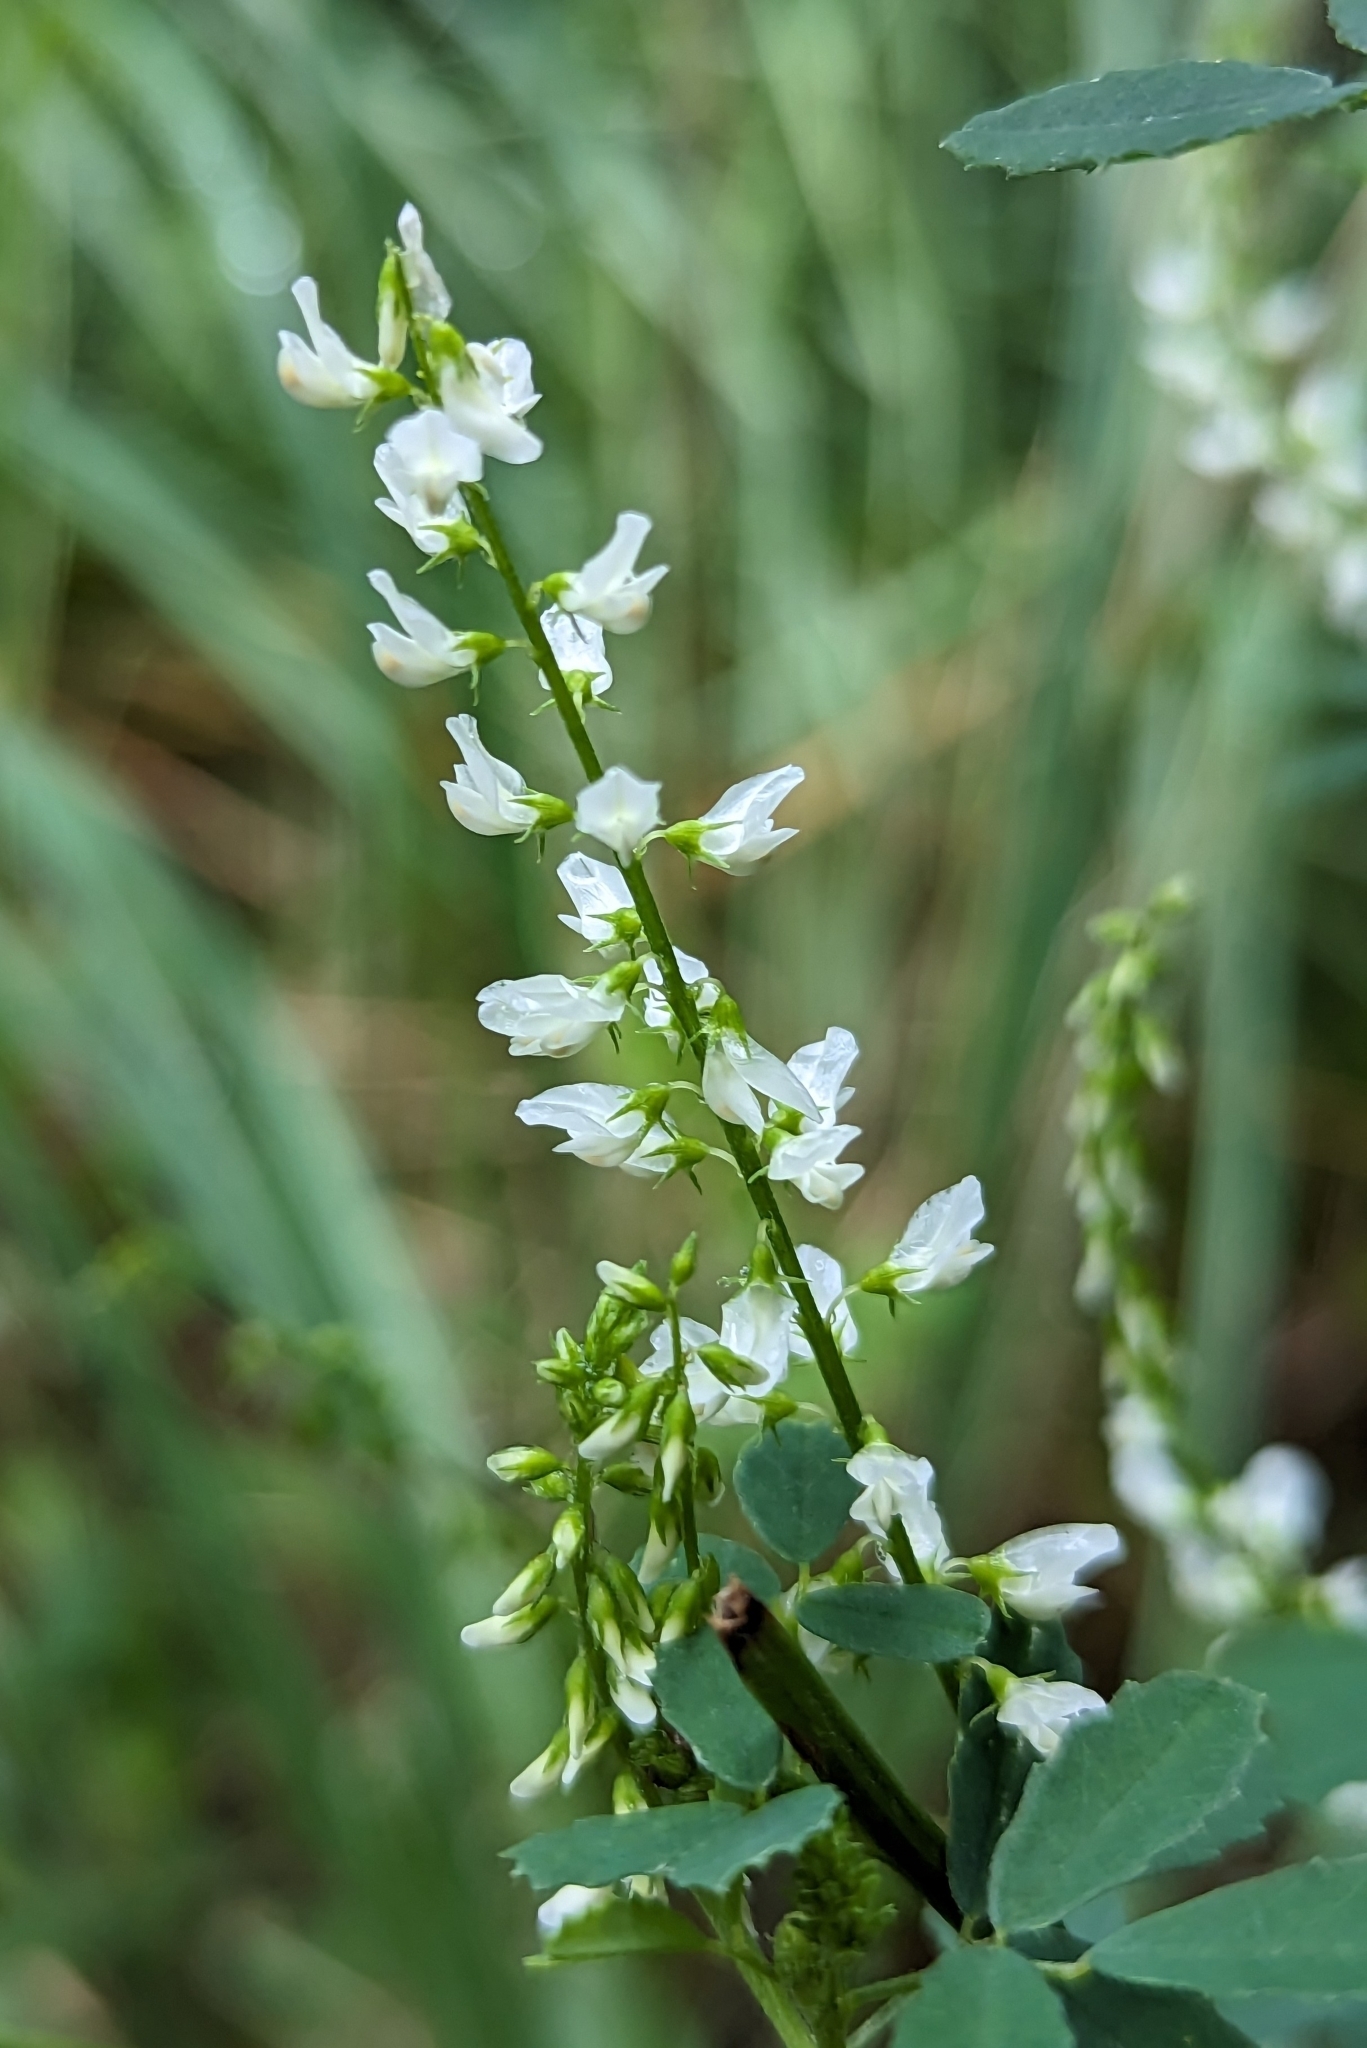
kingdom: Plantae
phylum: Tracheophyta
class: Magnoliopsida
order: Fabales
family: Fabaceae
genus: Melilotus
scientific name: Melilotus albus
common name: White melilot
